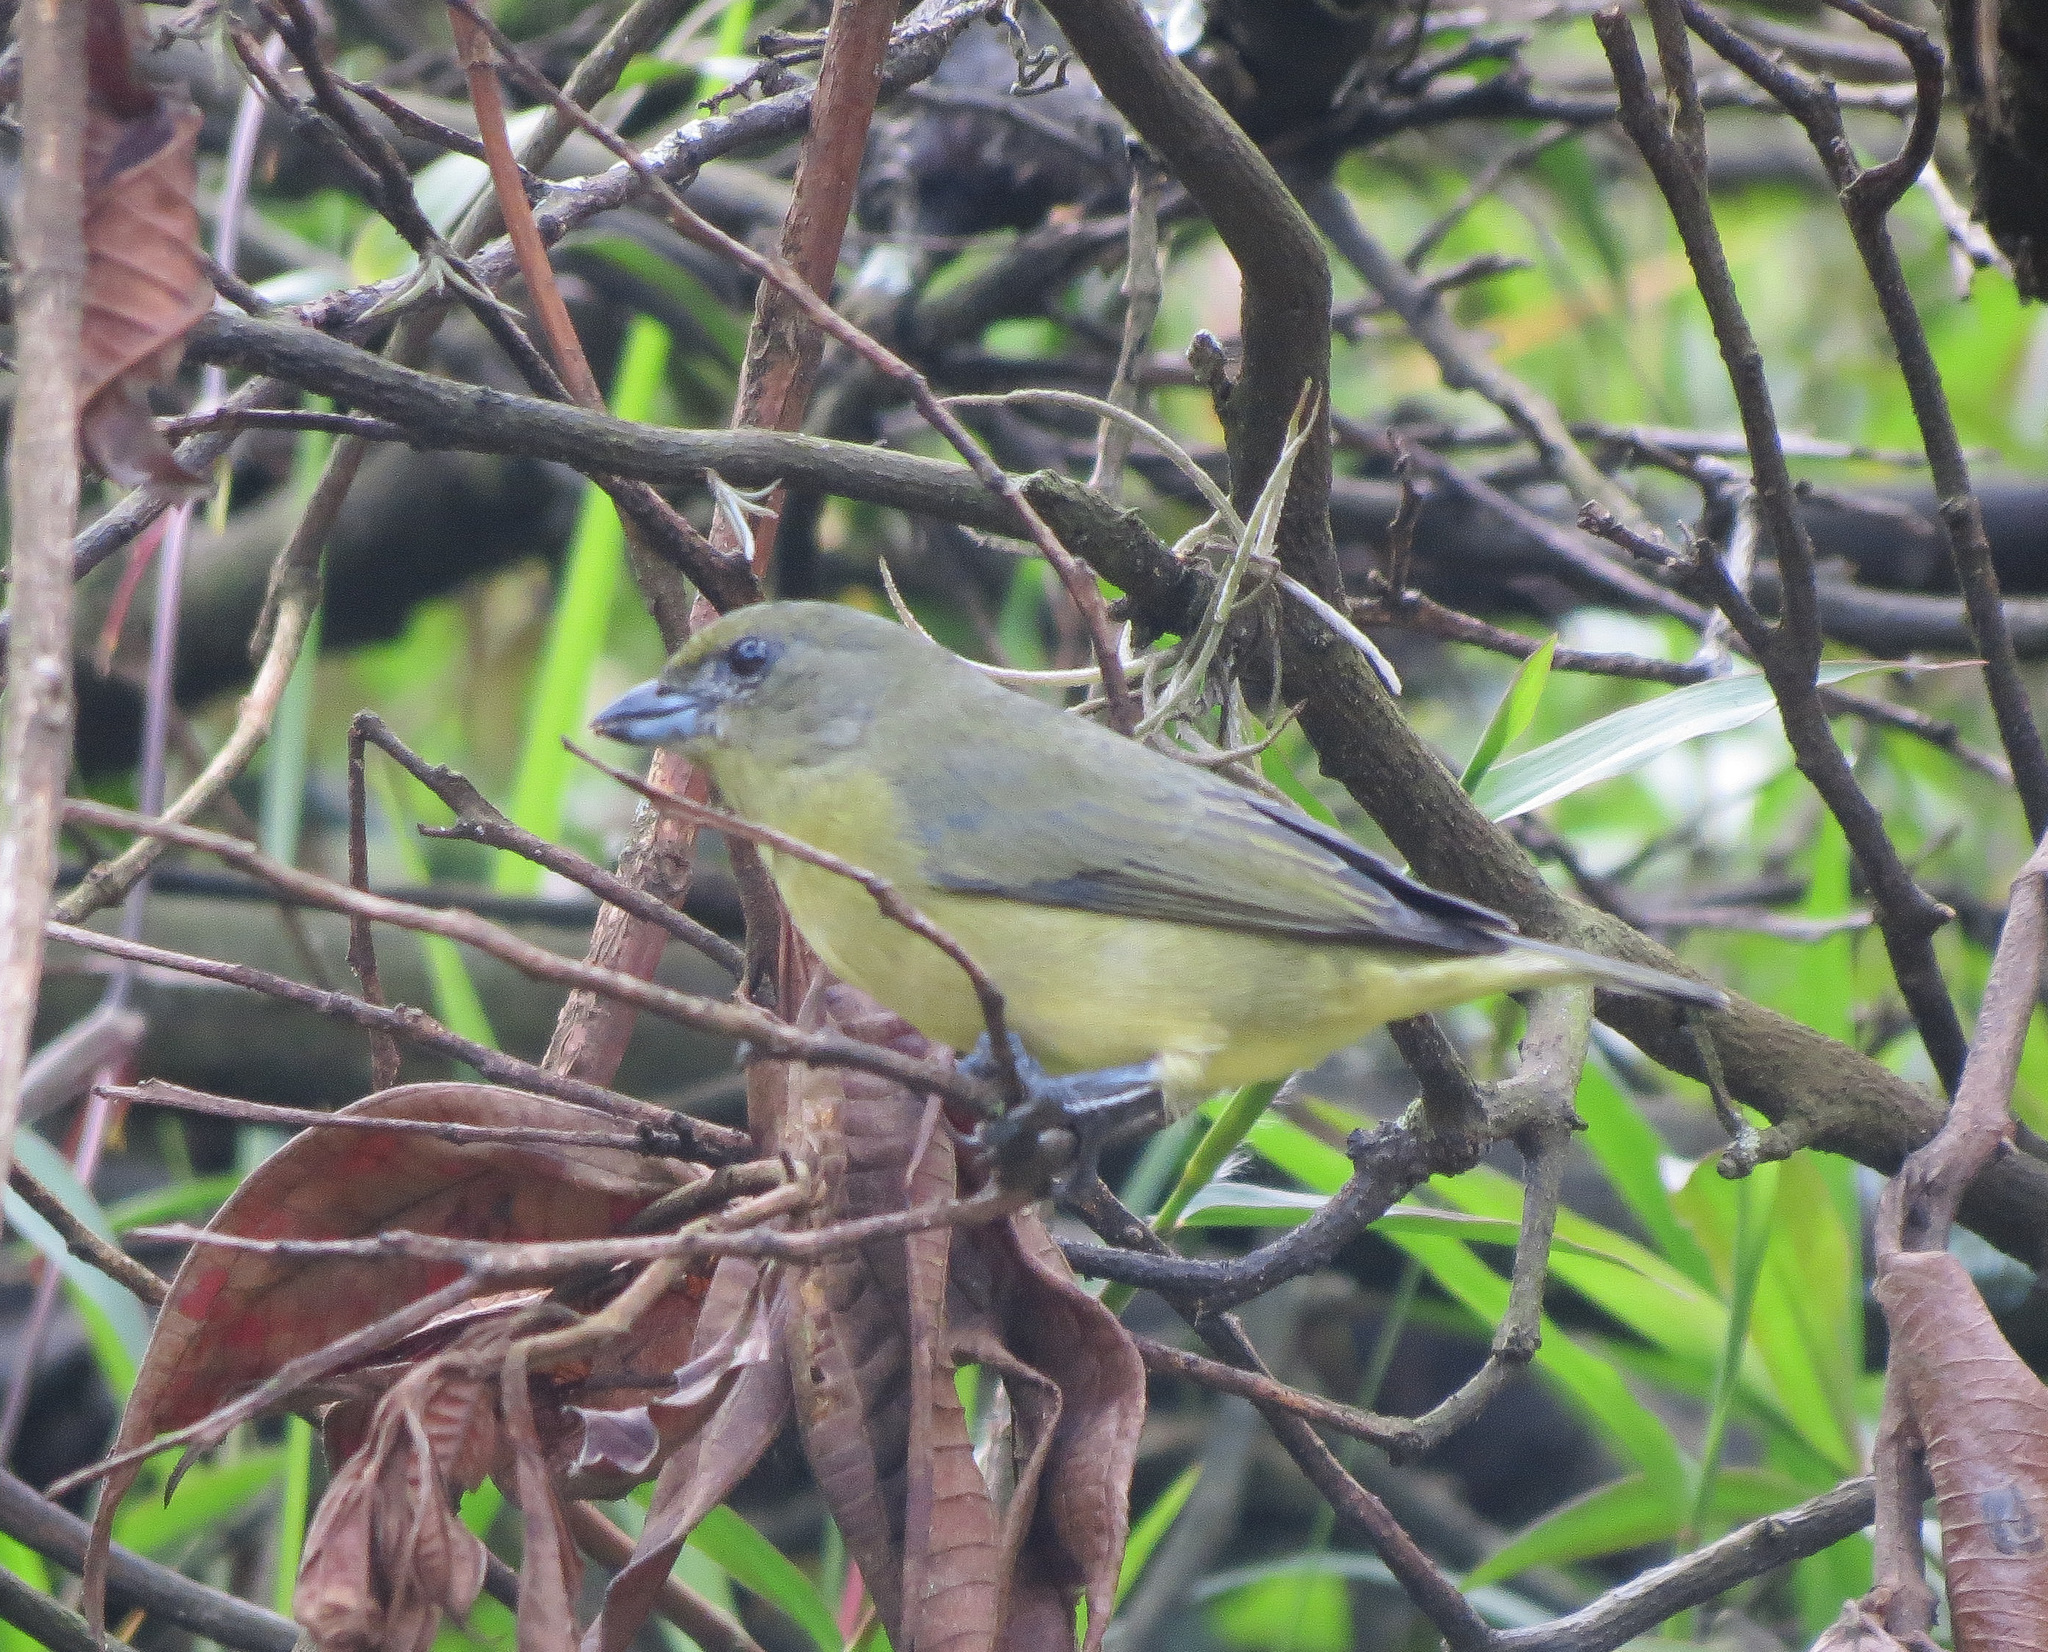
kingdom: Animalia
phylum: Chordata
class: Aves
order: Passeriformes
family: Fringillidae
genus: Euphonia
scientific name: Euphonia laniirostris
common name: Thick-billed euphonia
